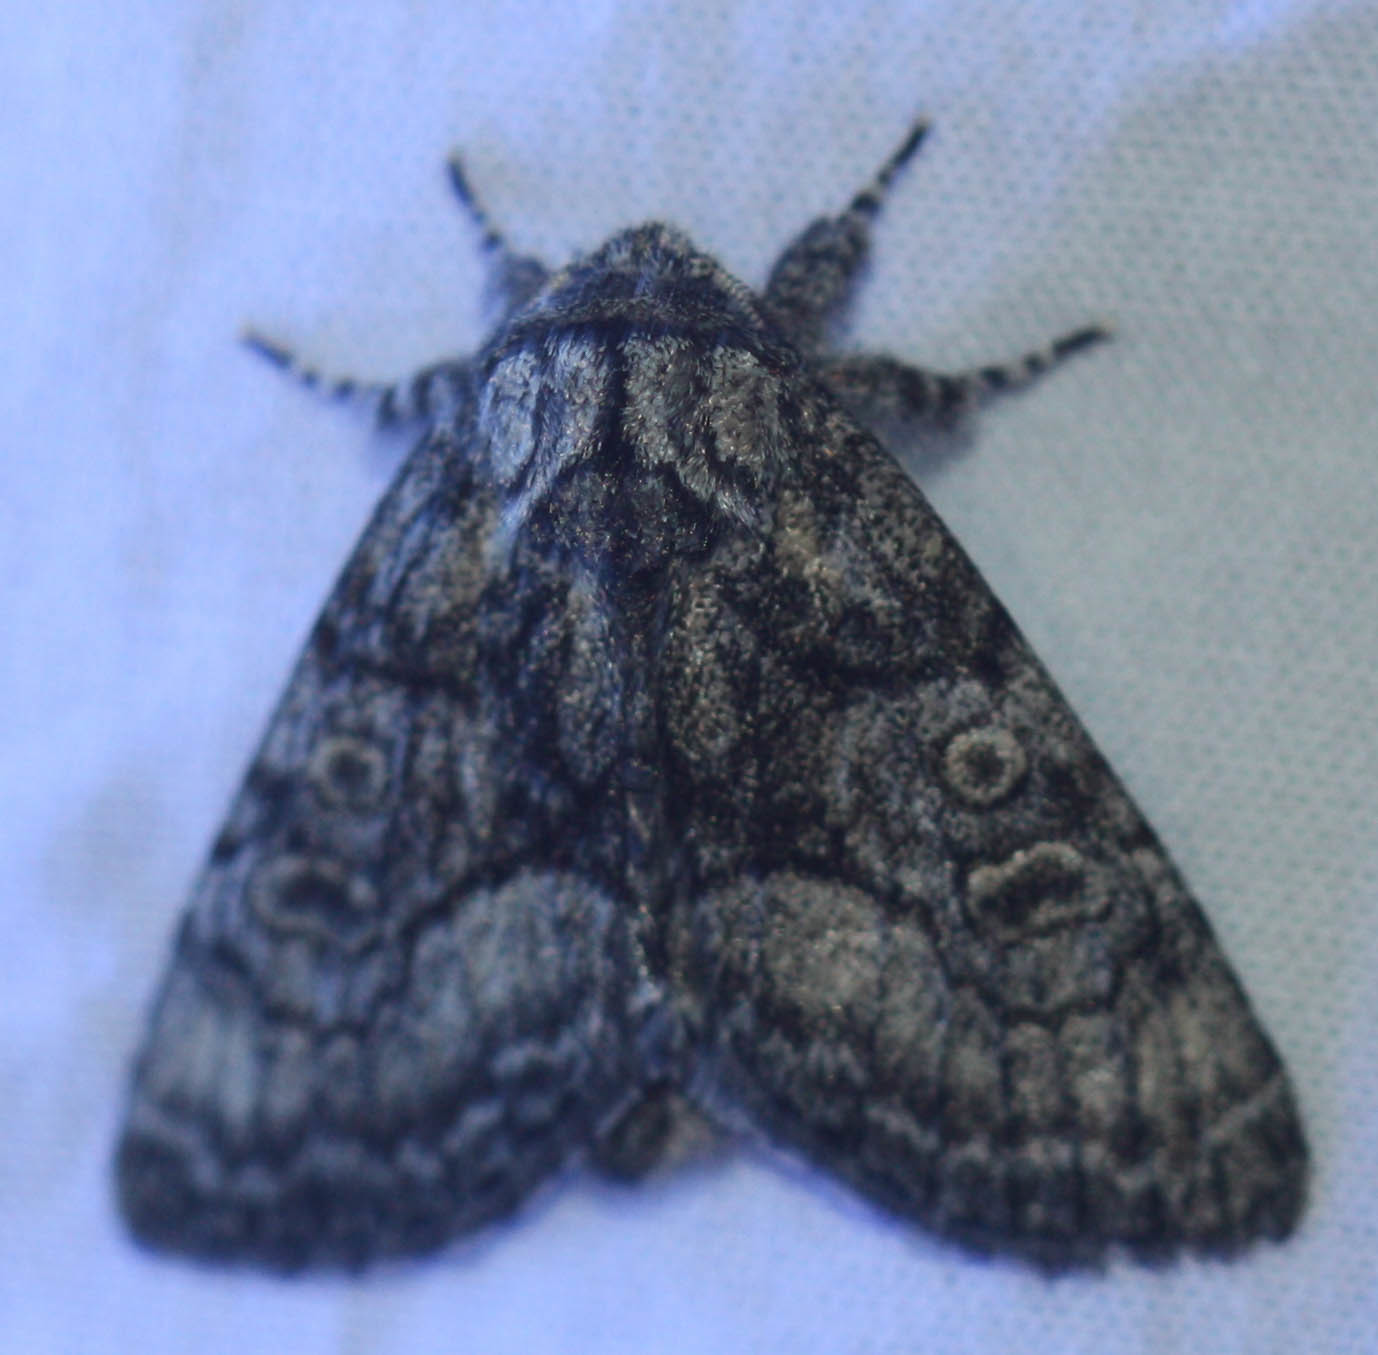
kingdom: Animalia
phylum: Arthropoda
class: Insecta
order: Lepidoptera
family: Noctuidae
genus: Raphia
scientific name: Raphia frater
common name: Brother
